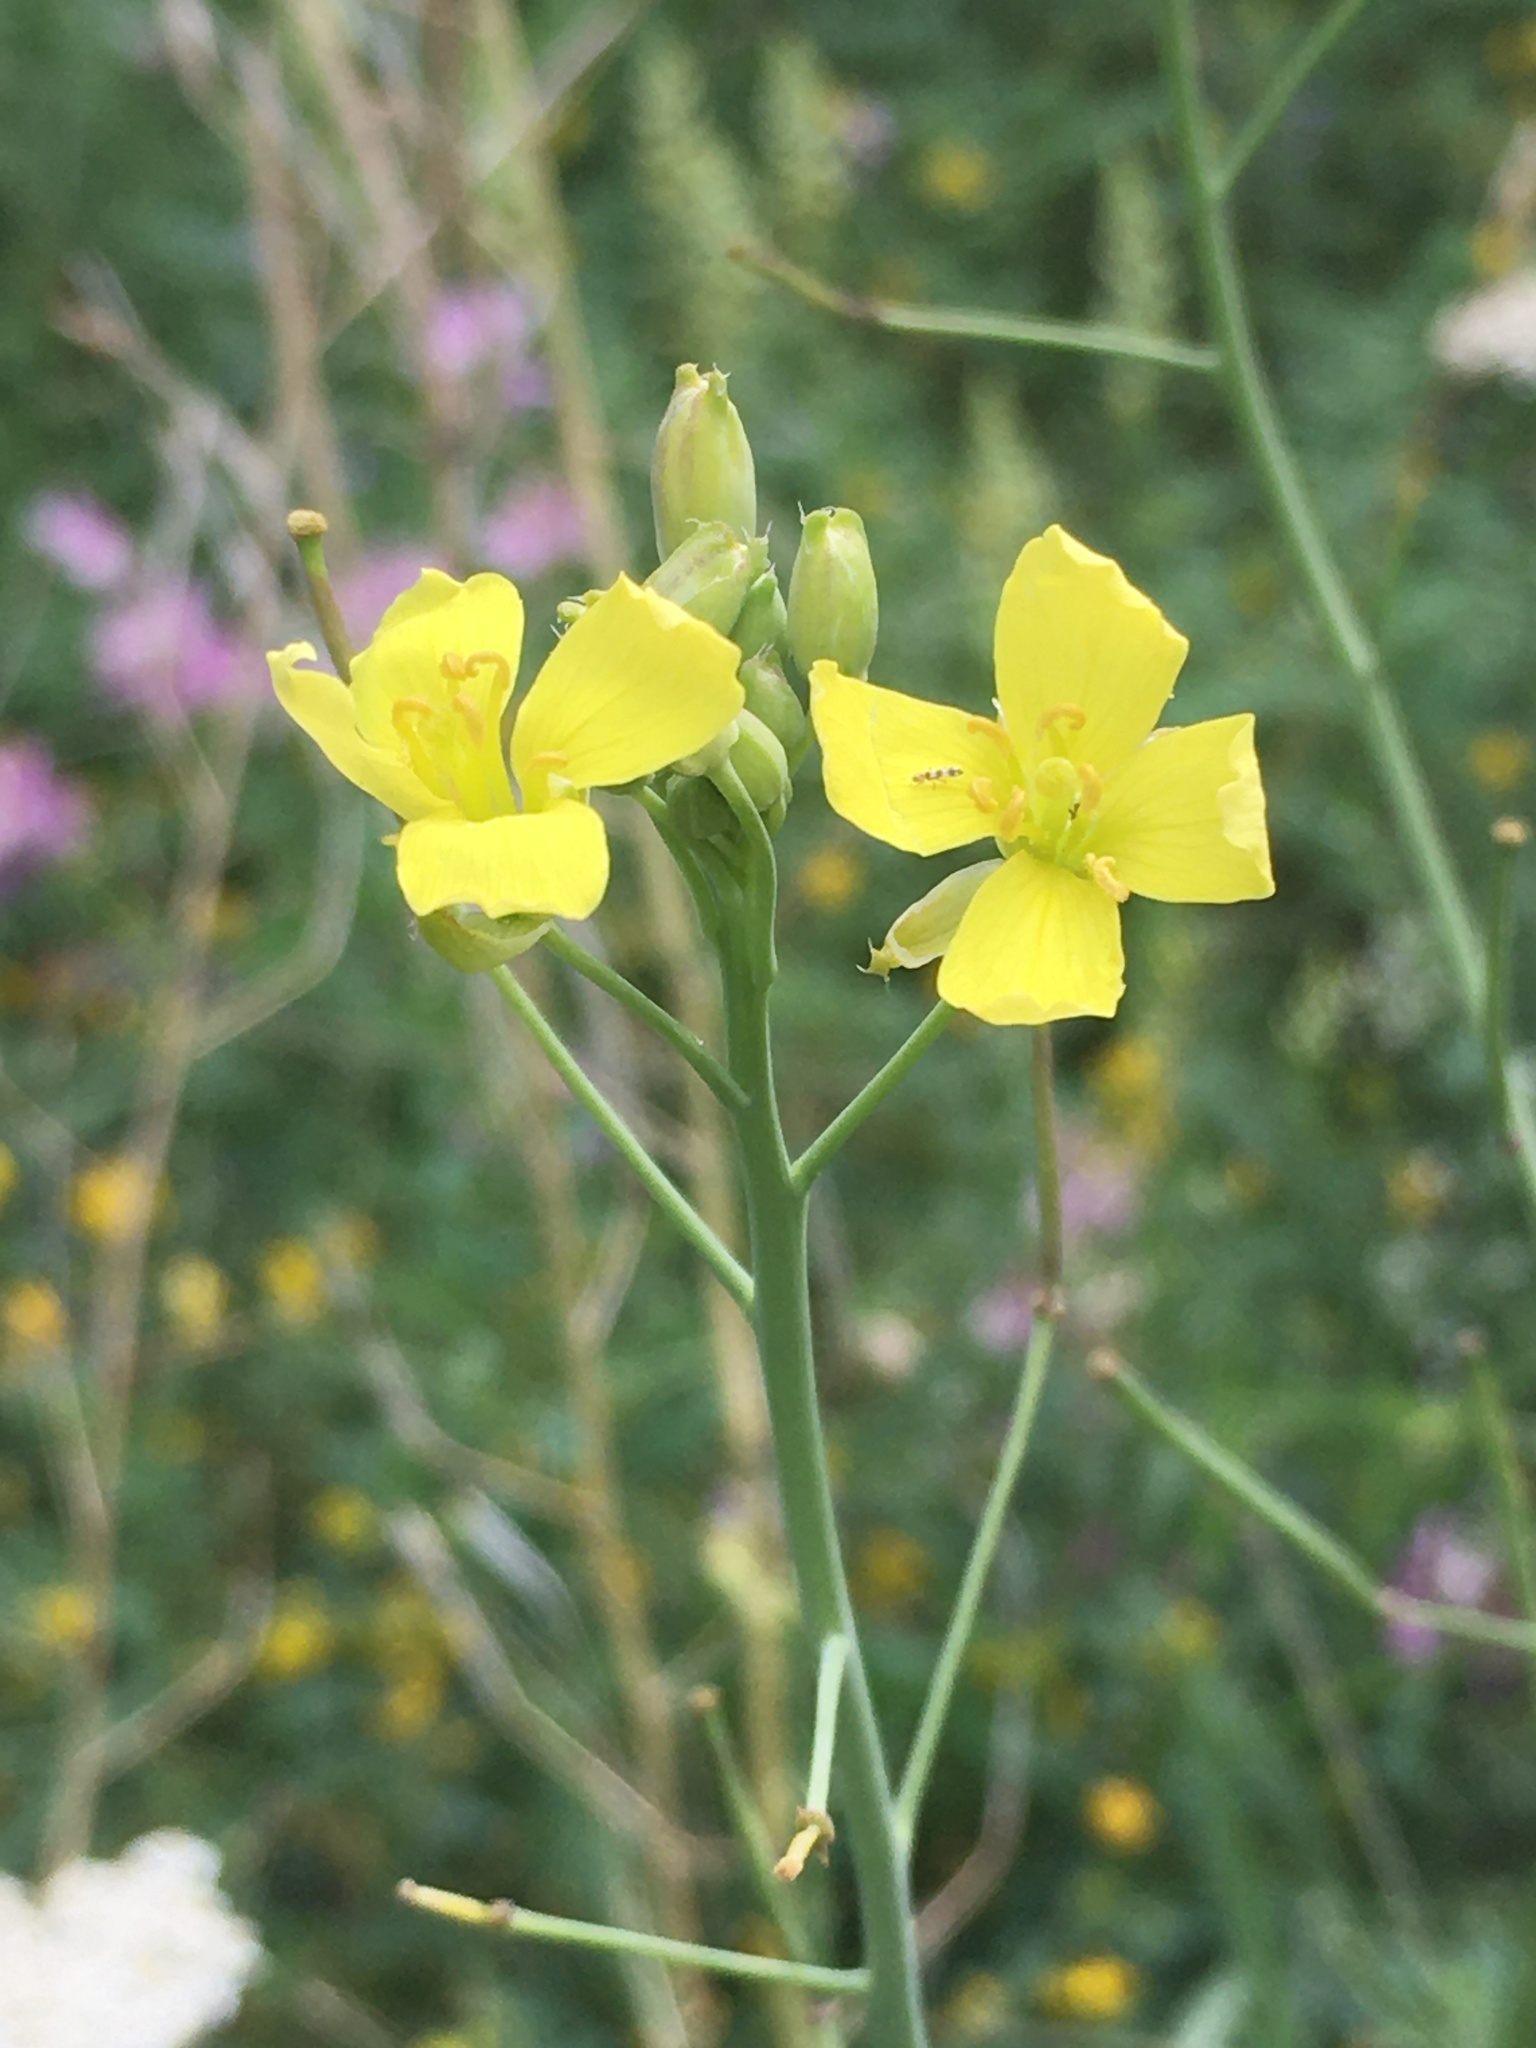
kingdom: Plantae
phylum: Tracheophyta
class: Magnoliopsida
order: Brassicales
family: Brassicaceae
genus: Diplotaxis
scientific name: Diplotaxis tenuifolia
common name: Perennial wall-rocket
